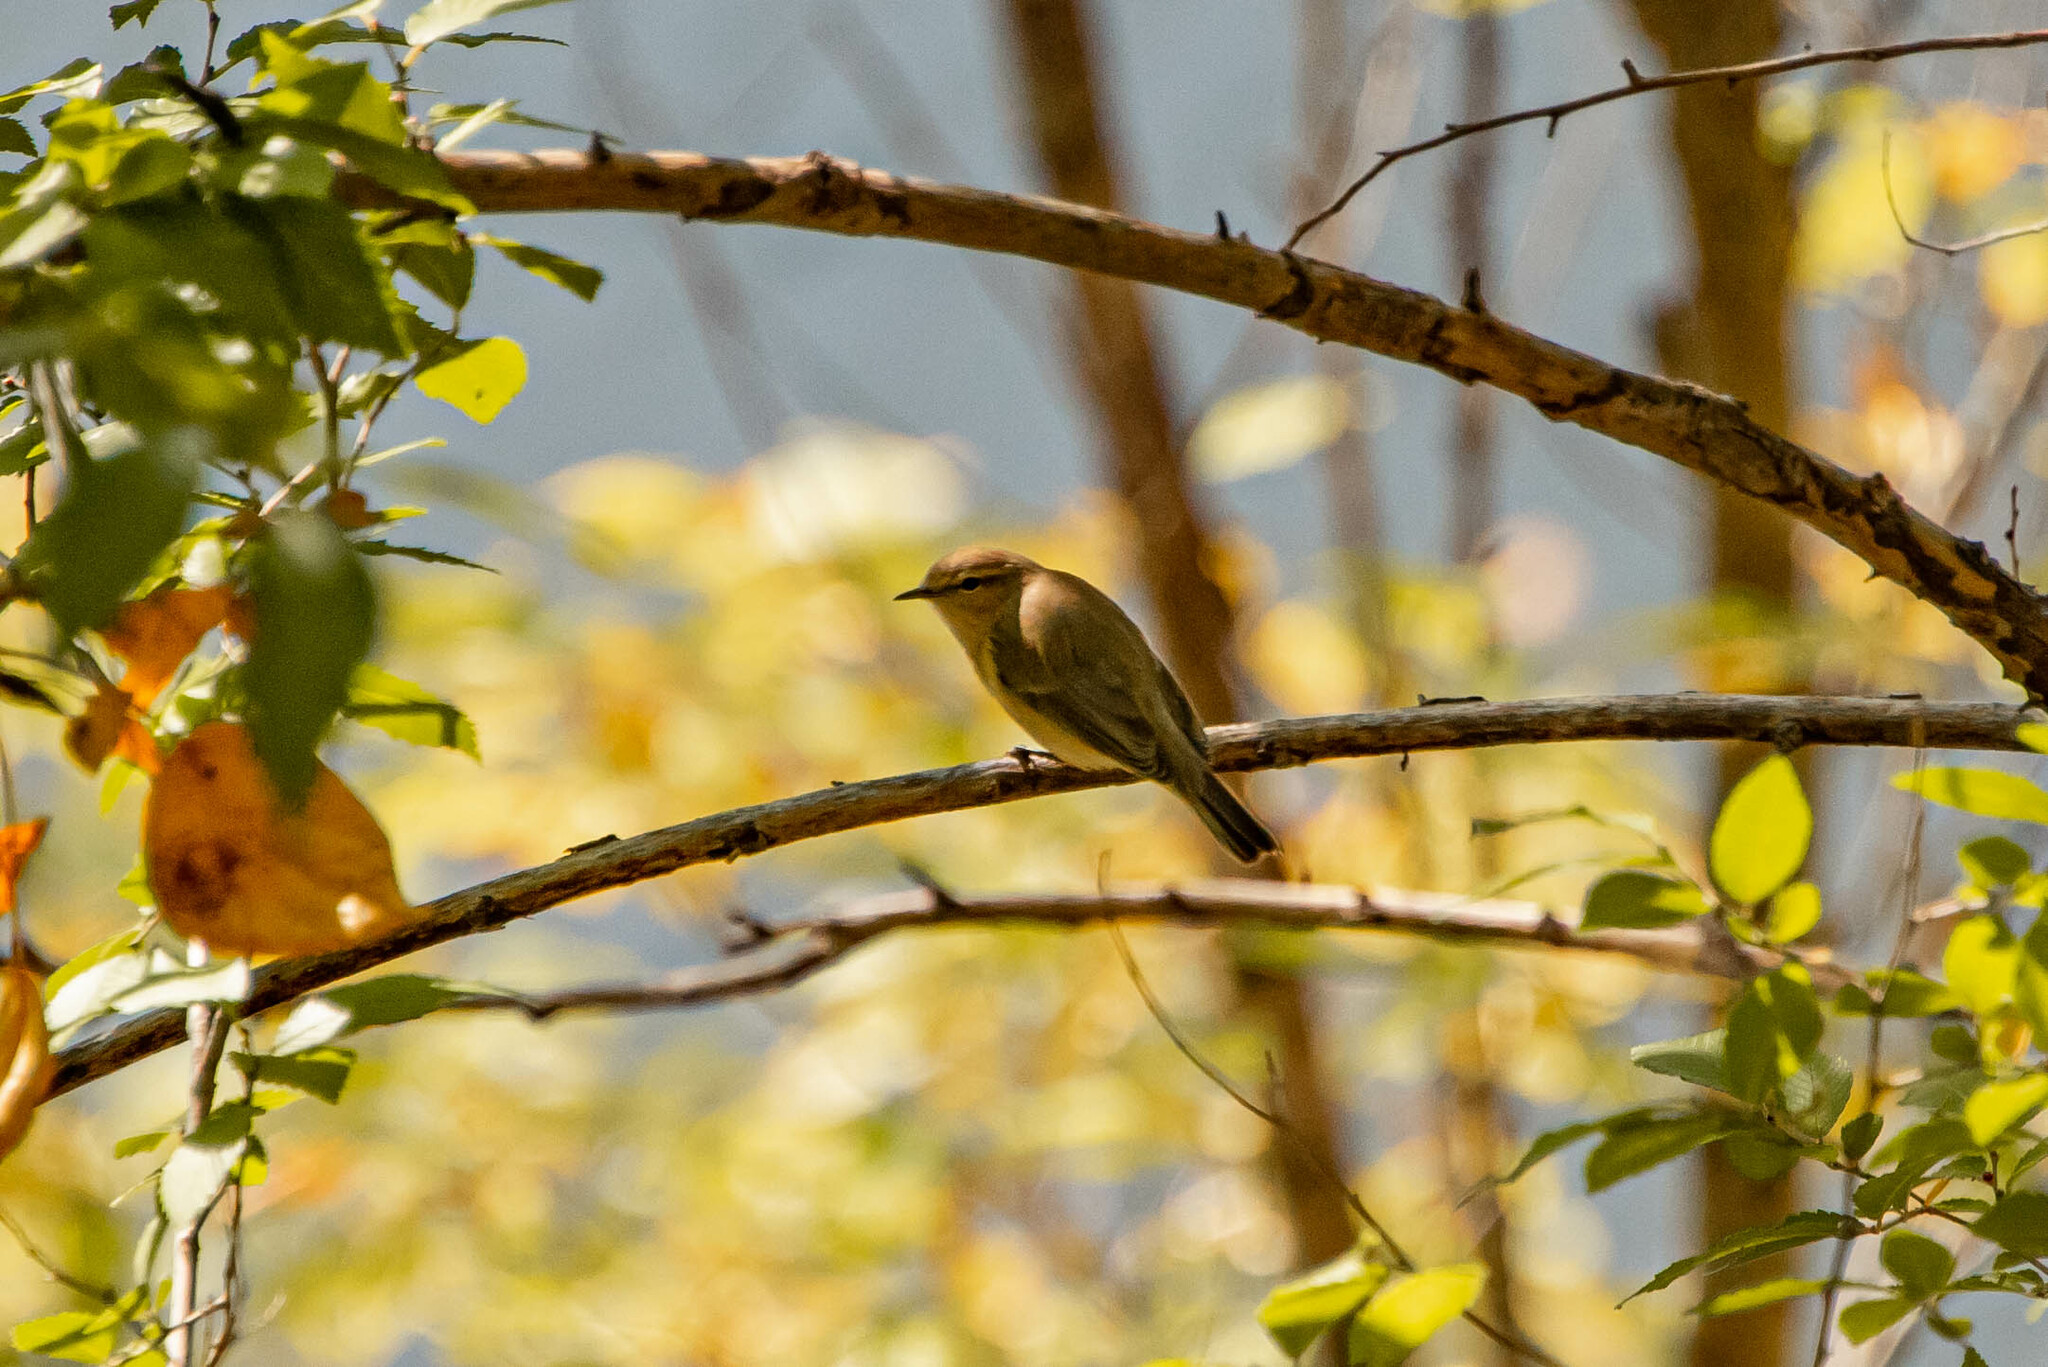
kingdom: Animalia
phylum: Chordata
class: Aves
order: Passeriformes
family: Phylloscopidae
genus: Phylloscopus
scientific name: Phylloscopus collybita
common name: Common chiffchaff
